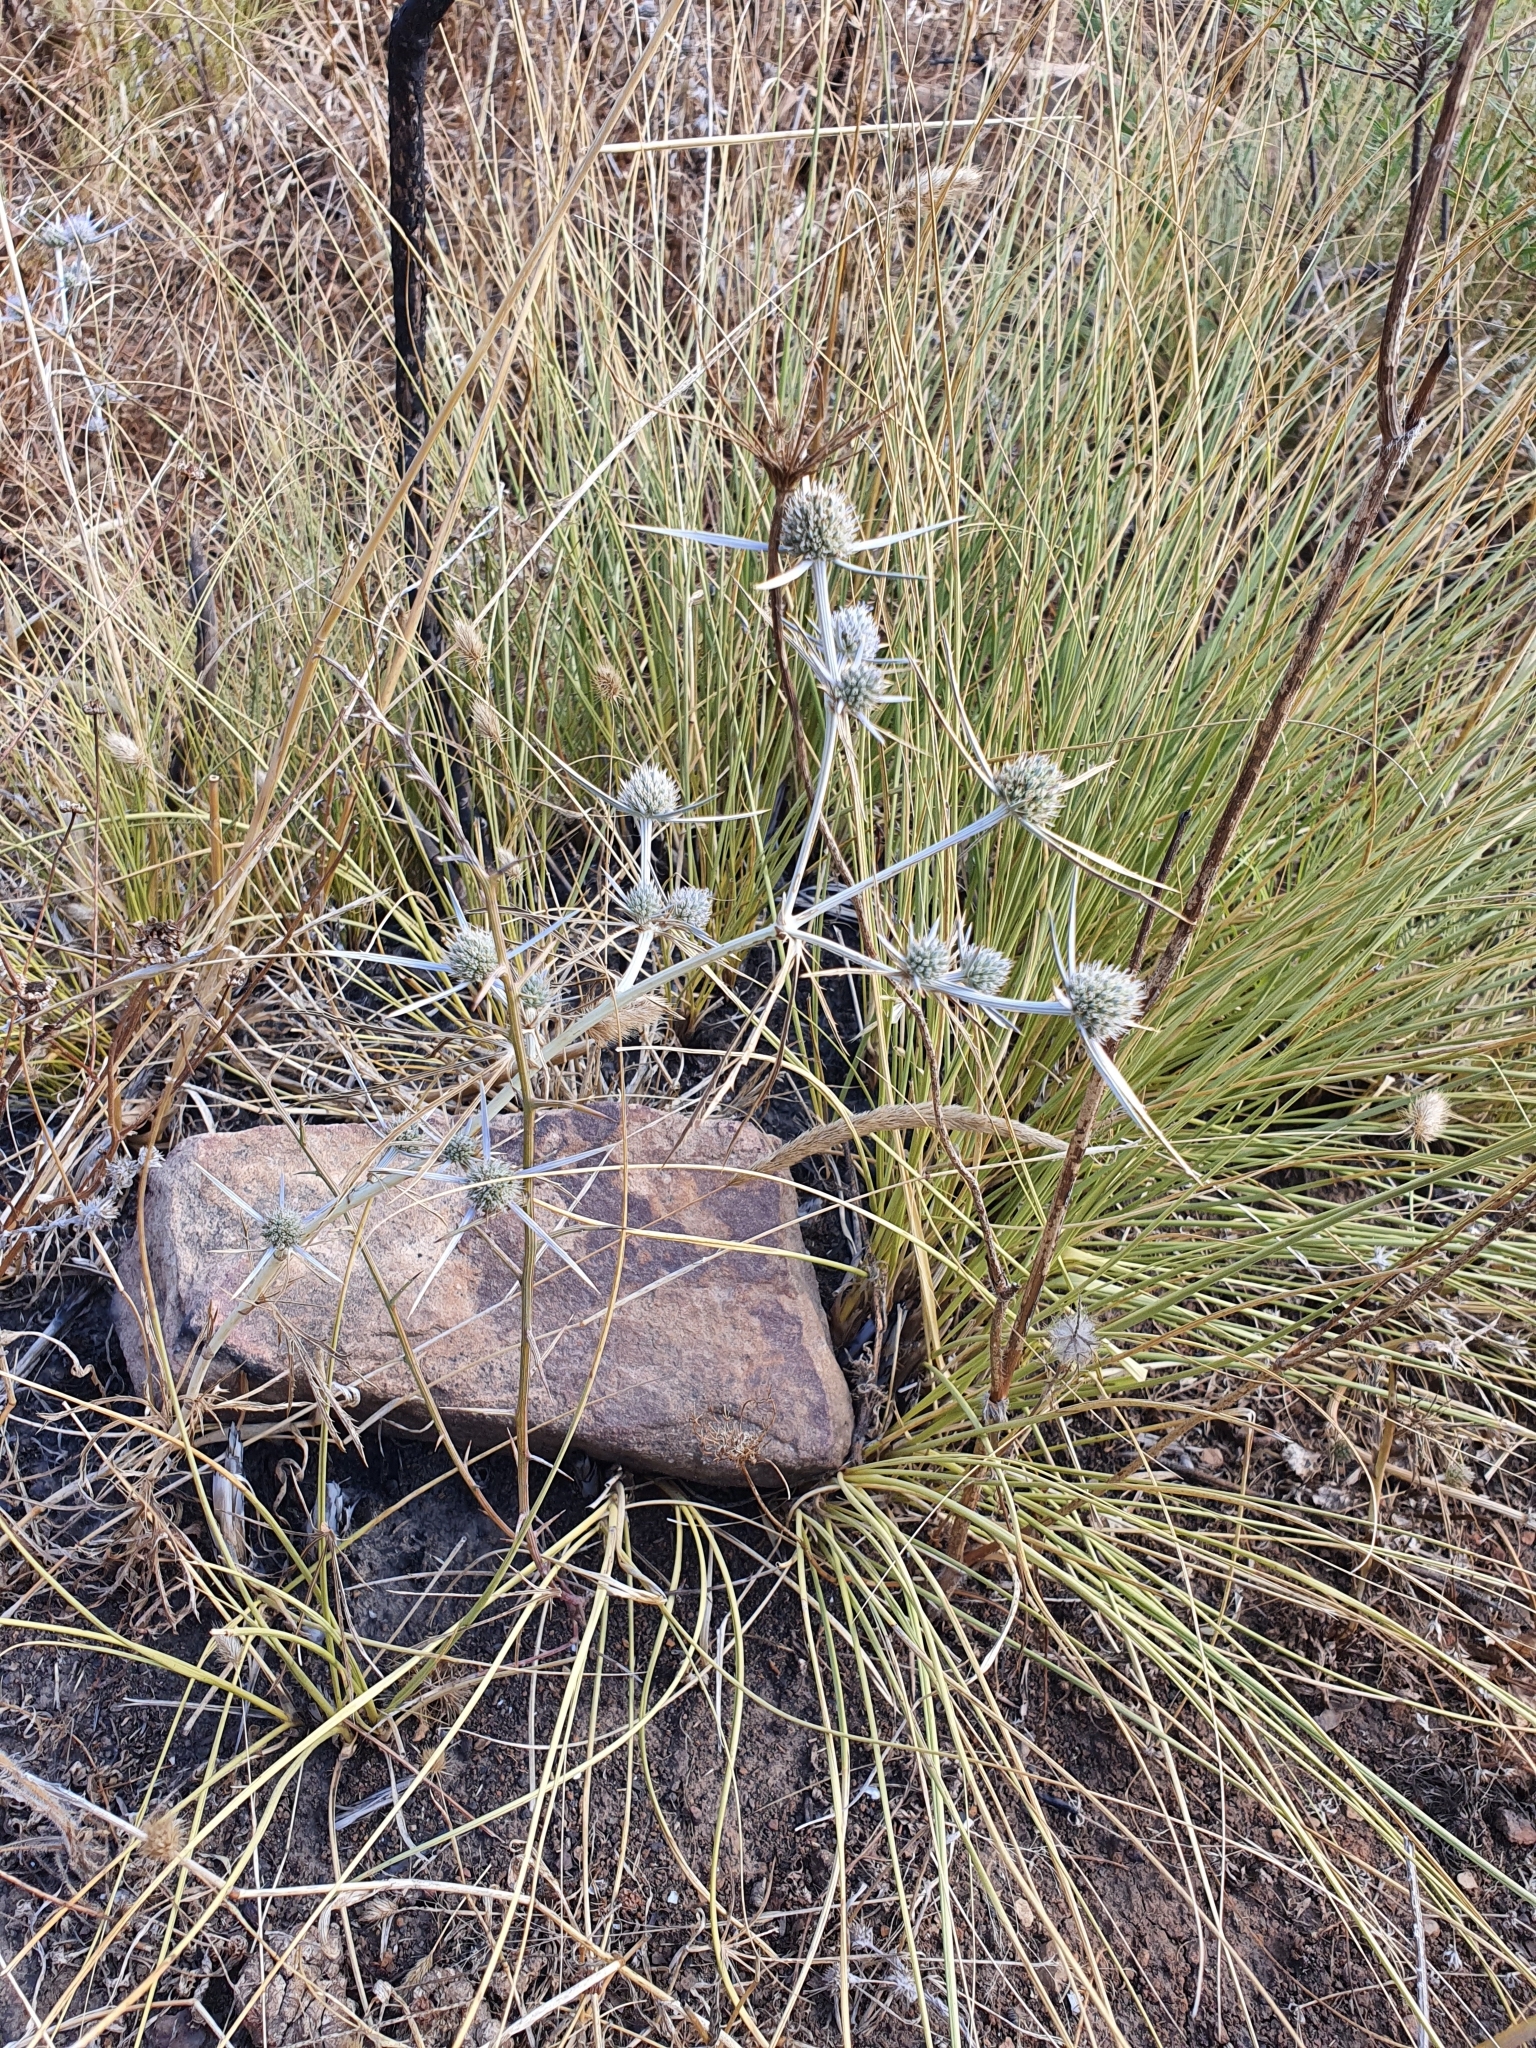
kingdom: Plantae
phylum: Tracheophyta
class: Magnoliopsida
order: Apiales
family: Apiaceae
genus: Eryngium
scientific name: Eryngium tricuspidatum
